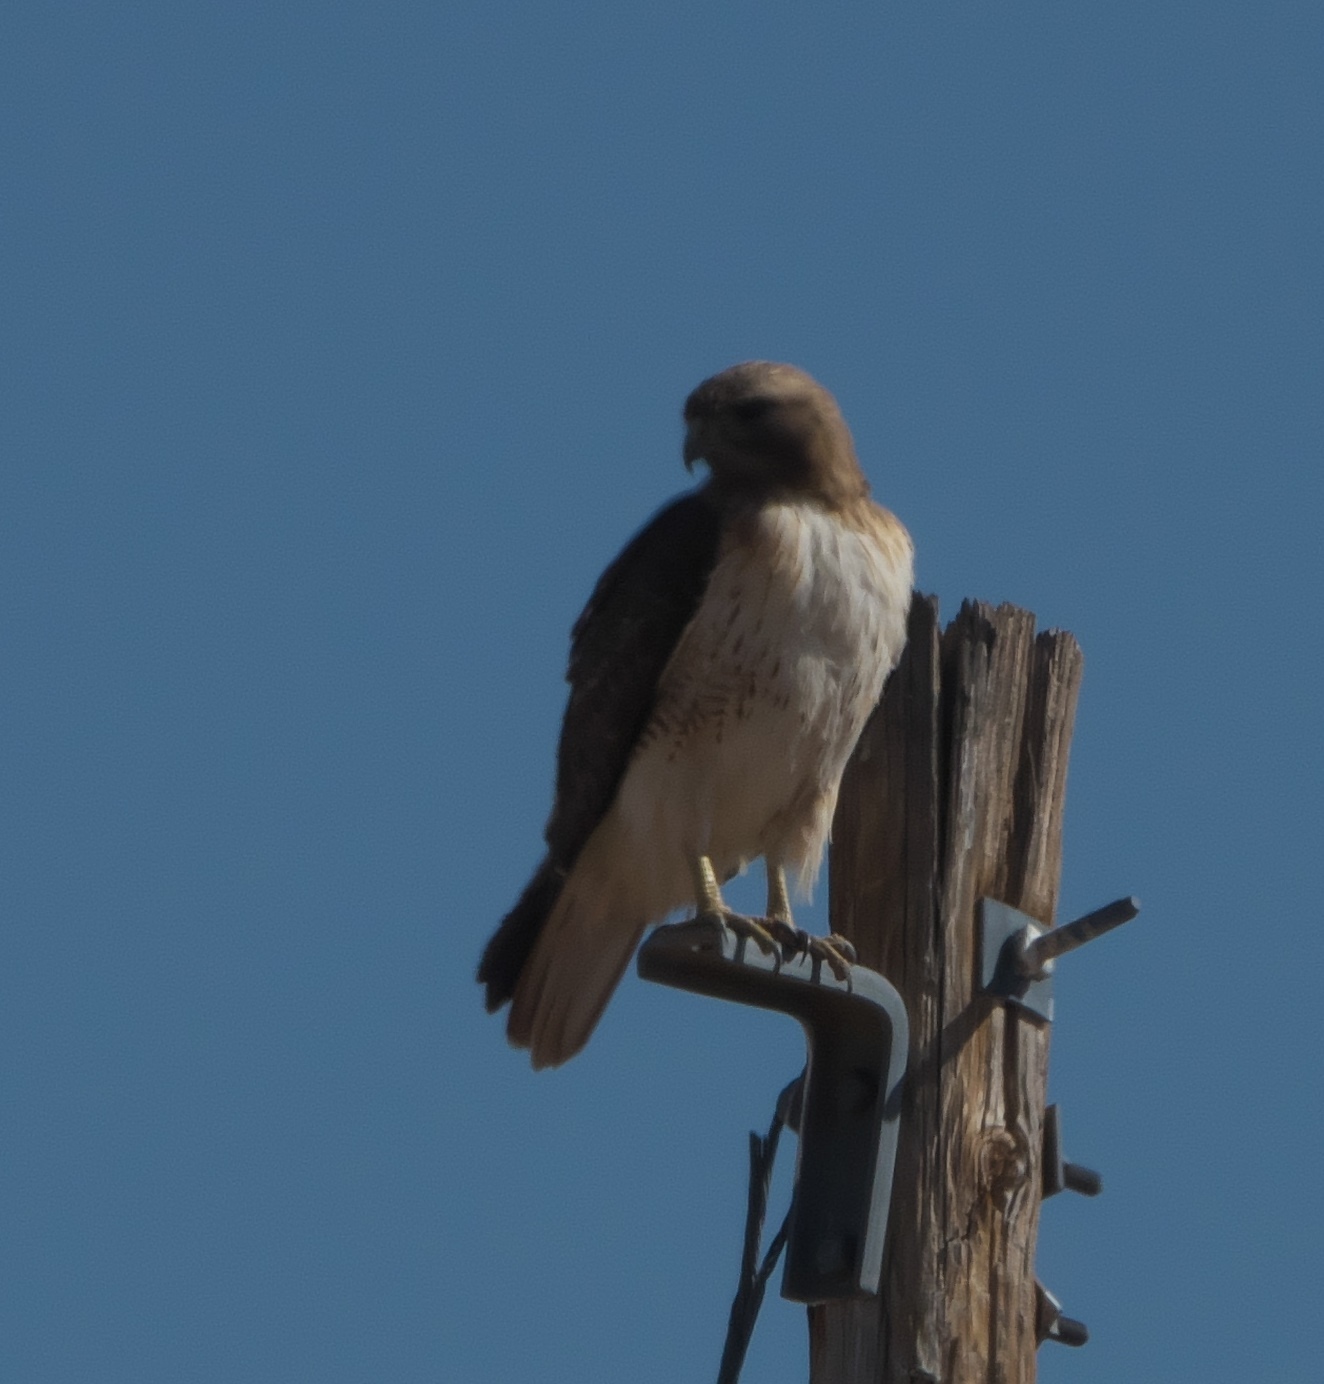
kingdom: Animalia
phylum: Chordata
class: Aves
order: Accipitriformes
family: Accipitridae
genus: Buteo
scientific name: Buteo jamaicensis
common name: Red-tailed hawk
